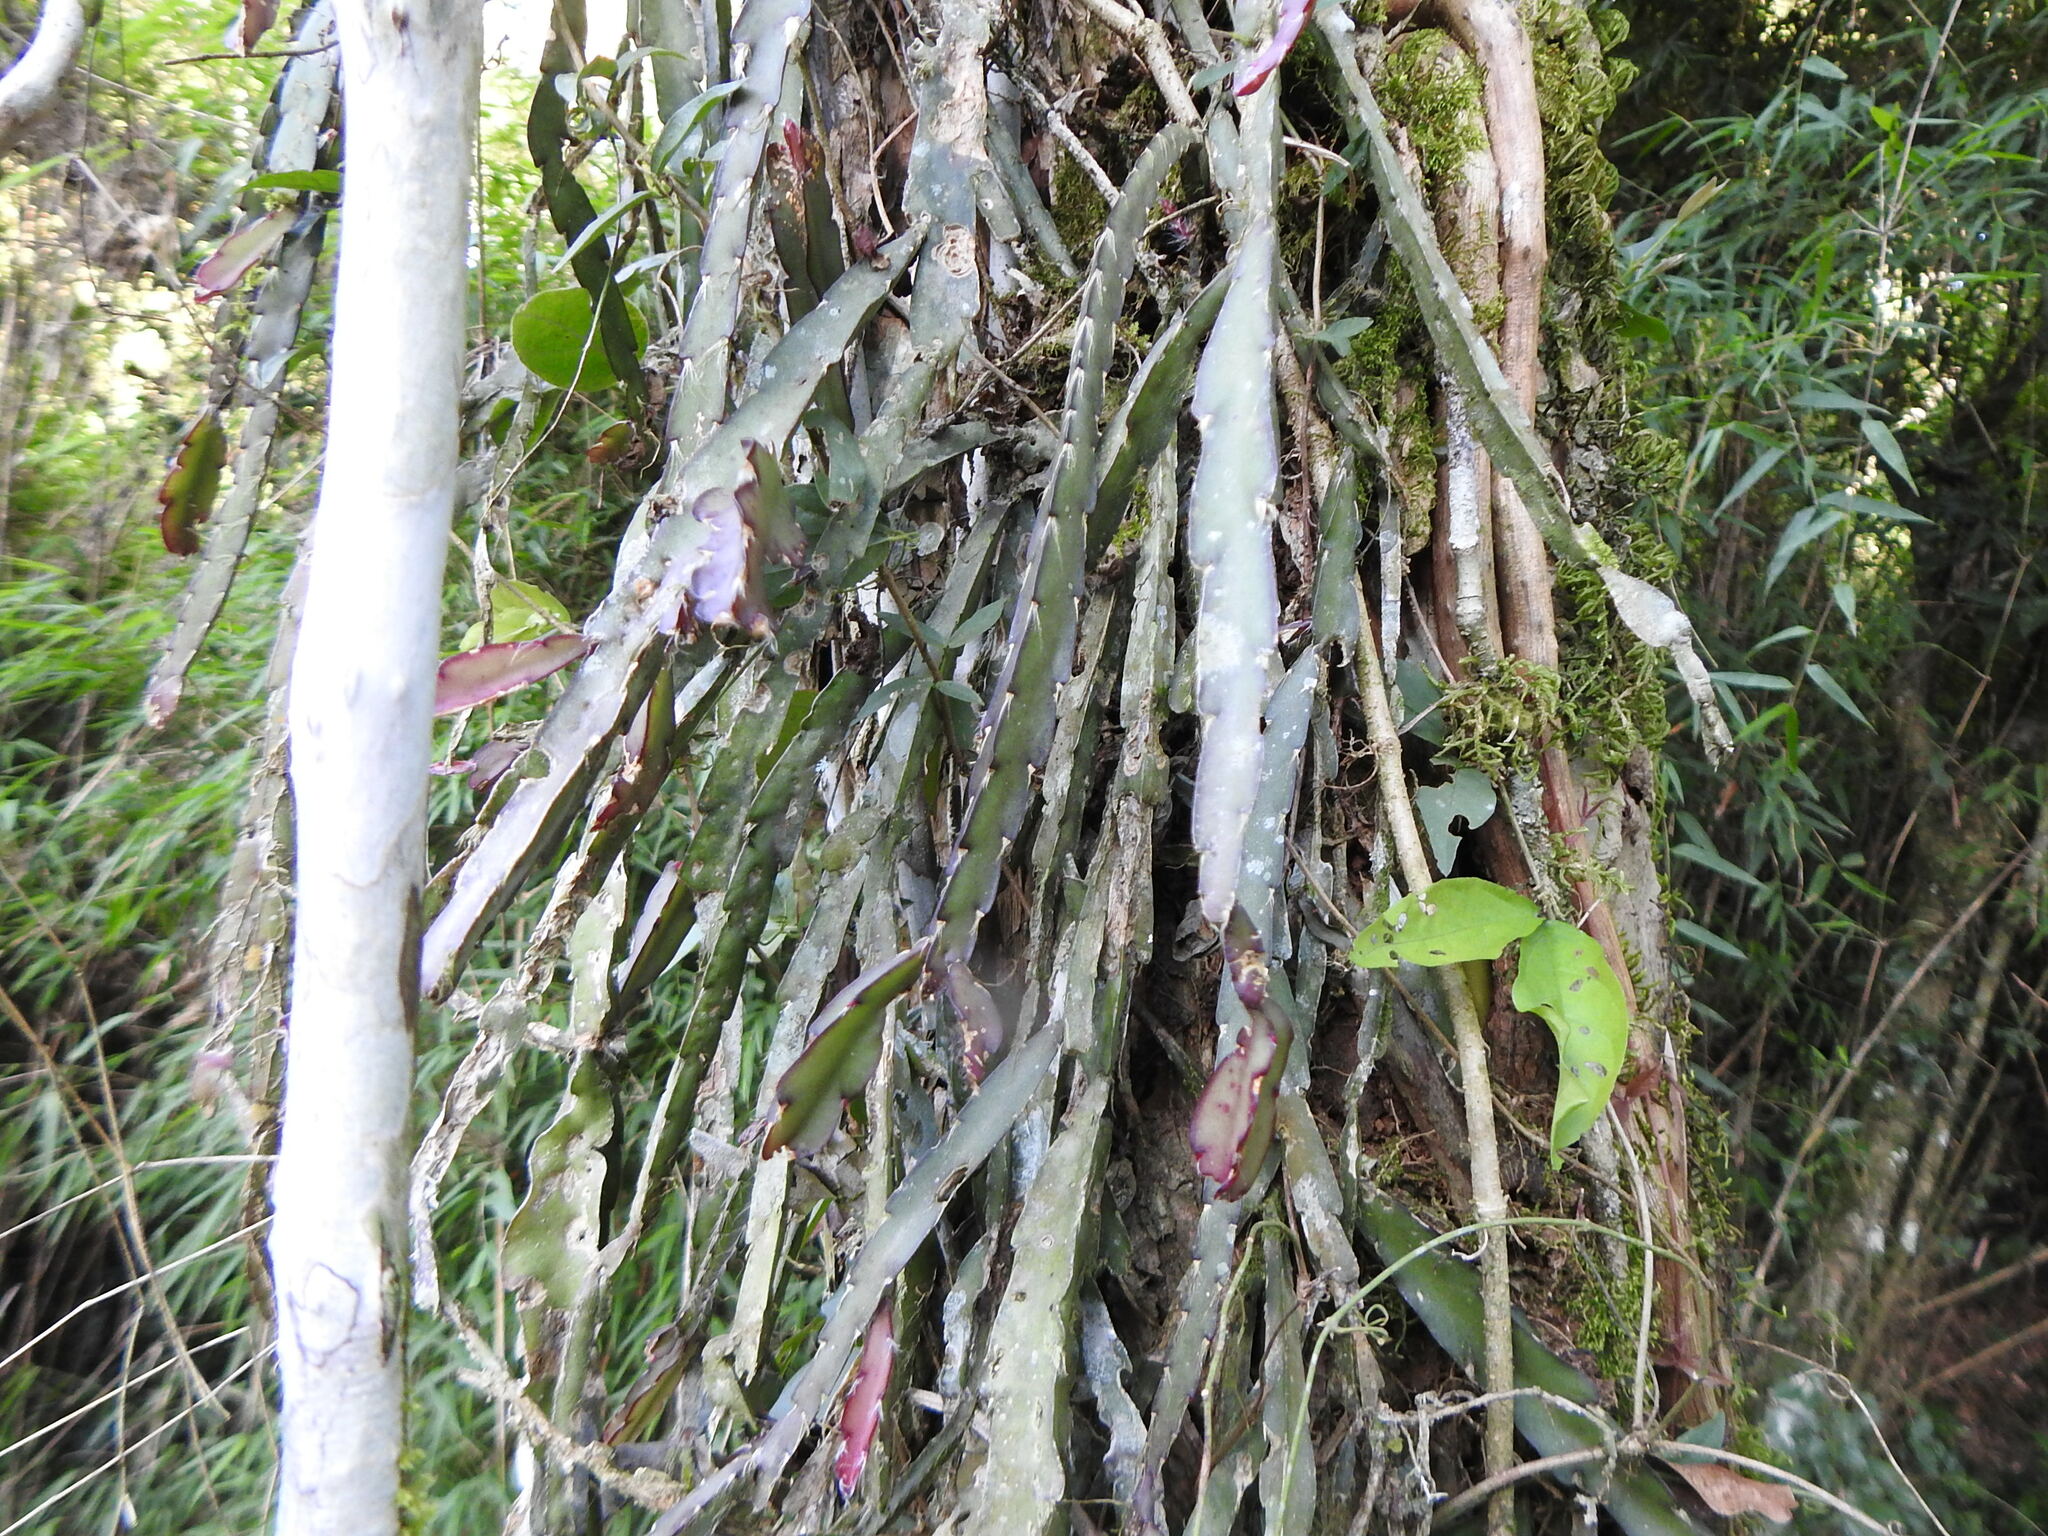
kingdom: Plantae
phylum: Tracheophyta
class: Magnoliopsida
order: Caryophyllales
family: Cactaceae
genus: Lepismium
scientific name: Lepismium cruciforme
